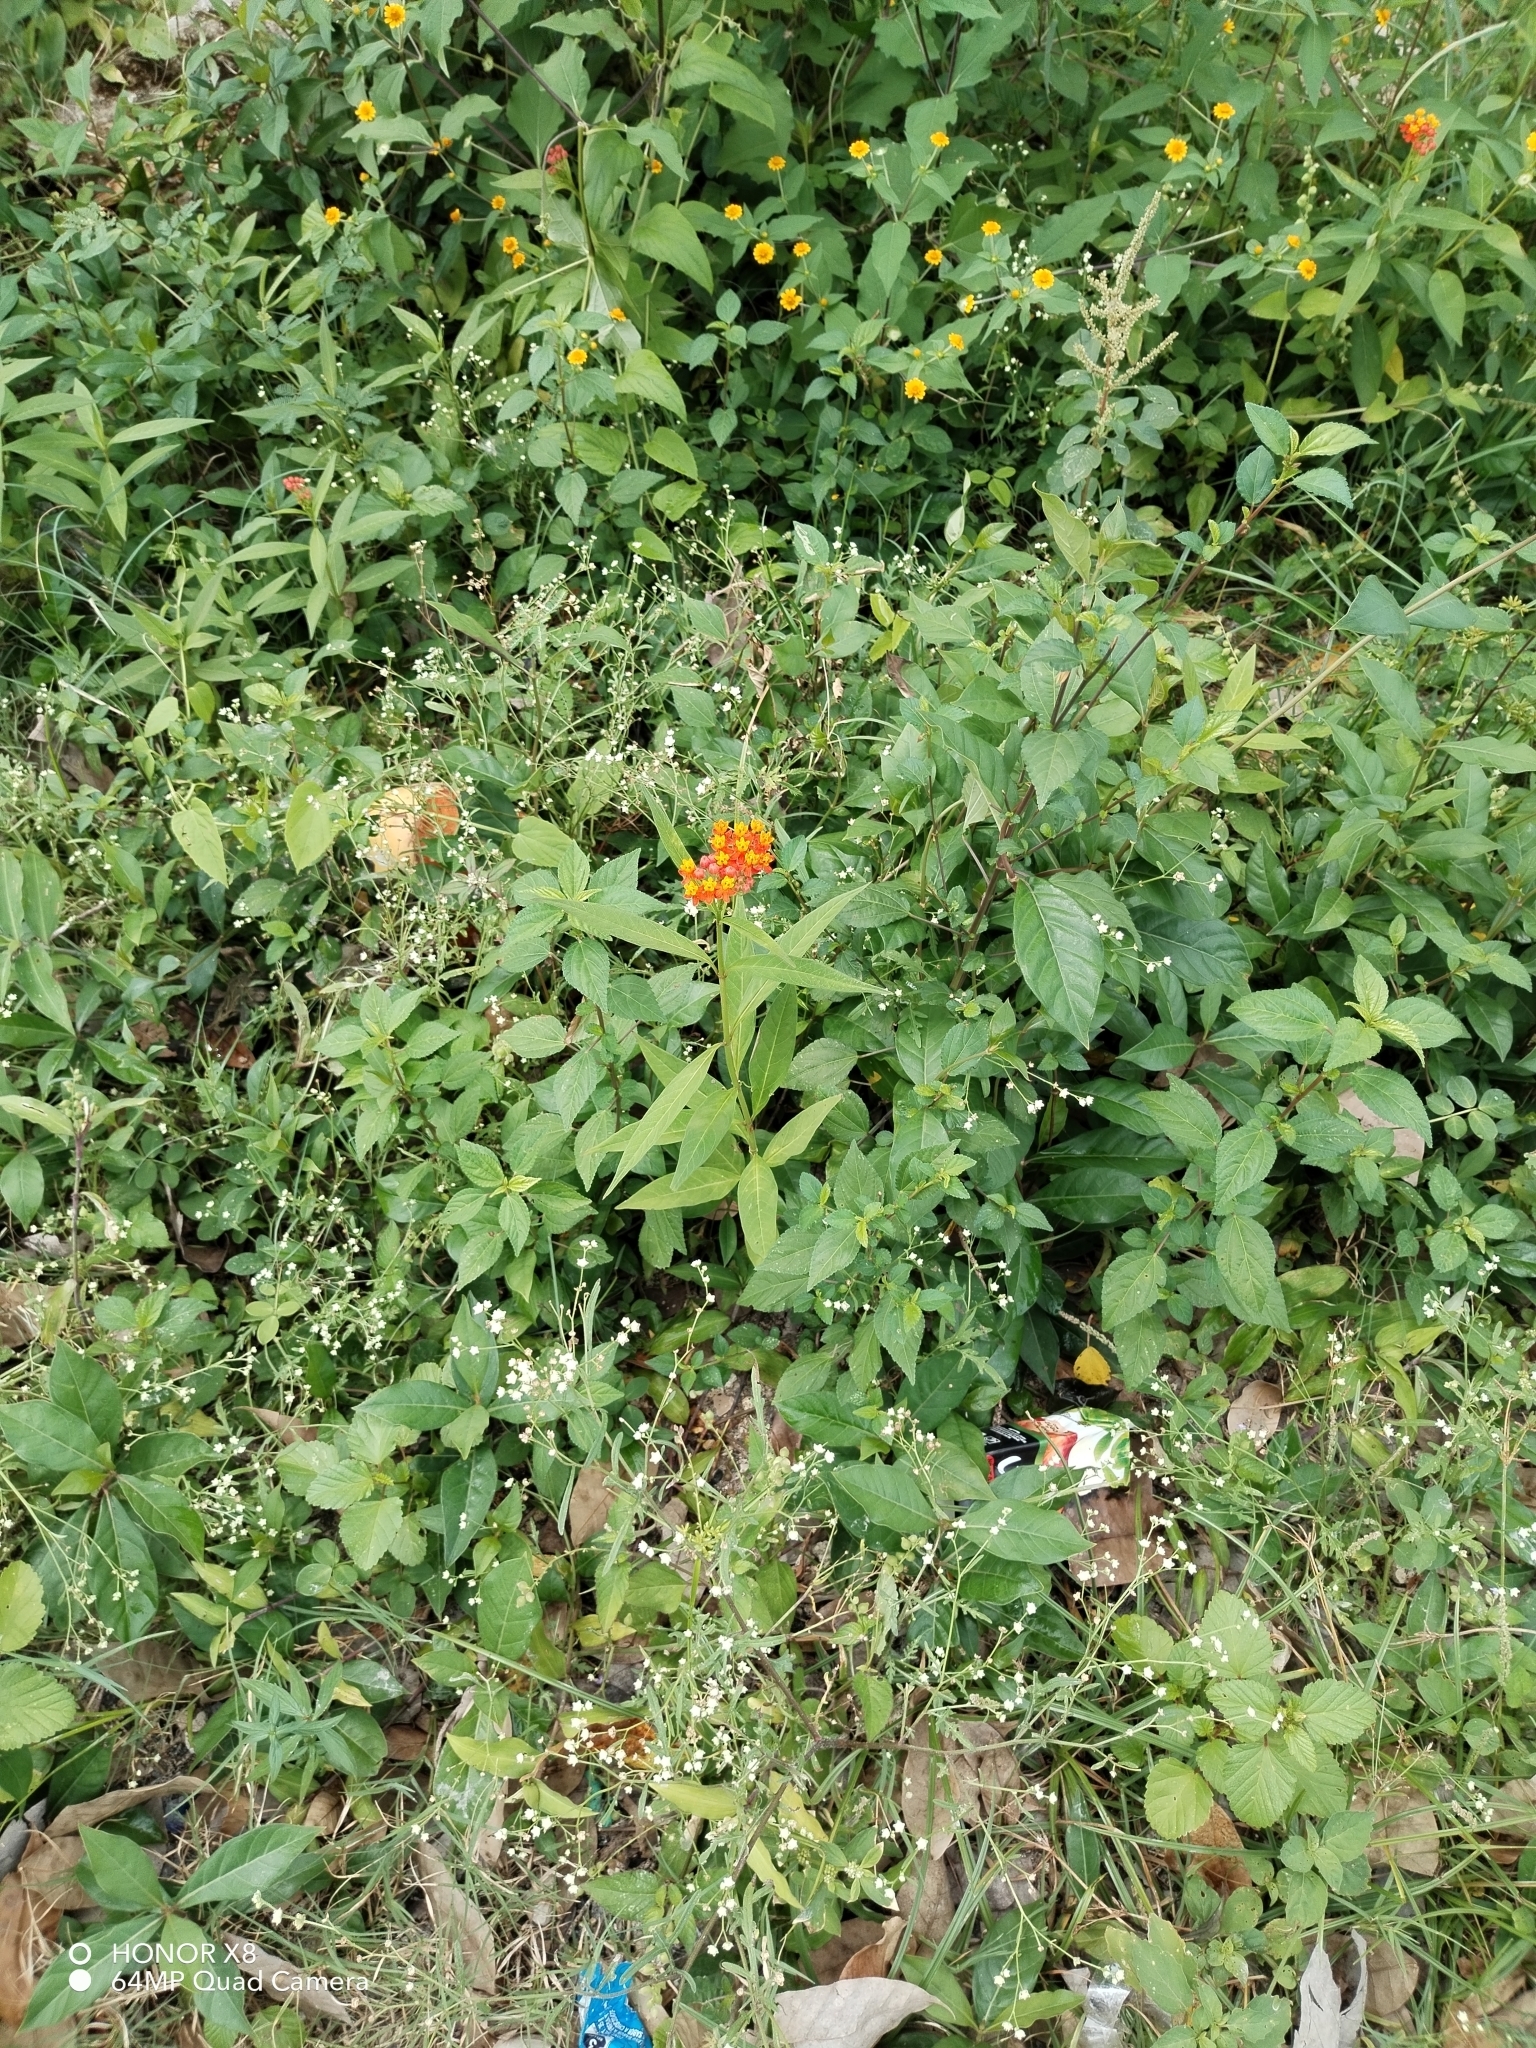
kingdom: Plantae
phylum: Tracheophyta
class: Magnoliopsida
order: Gentianales
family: Apocynaceae
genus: Asclepias
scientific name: Asclepias curassavica
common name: Bloodflower
